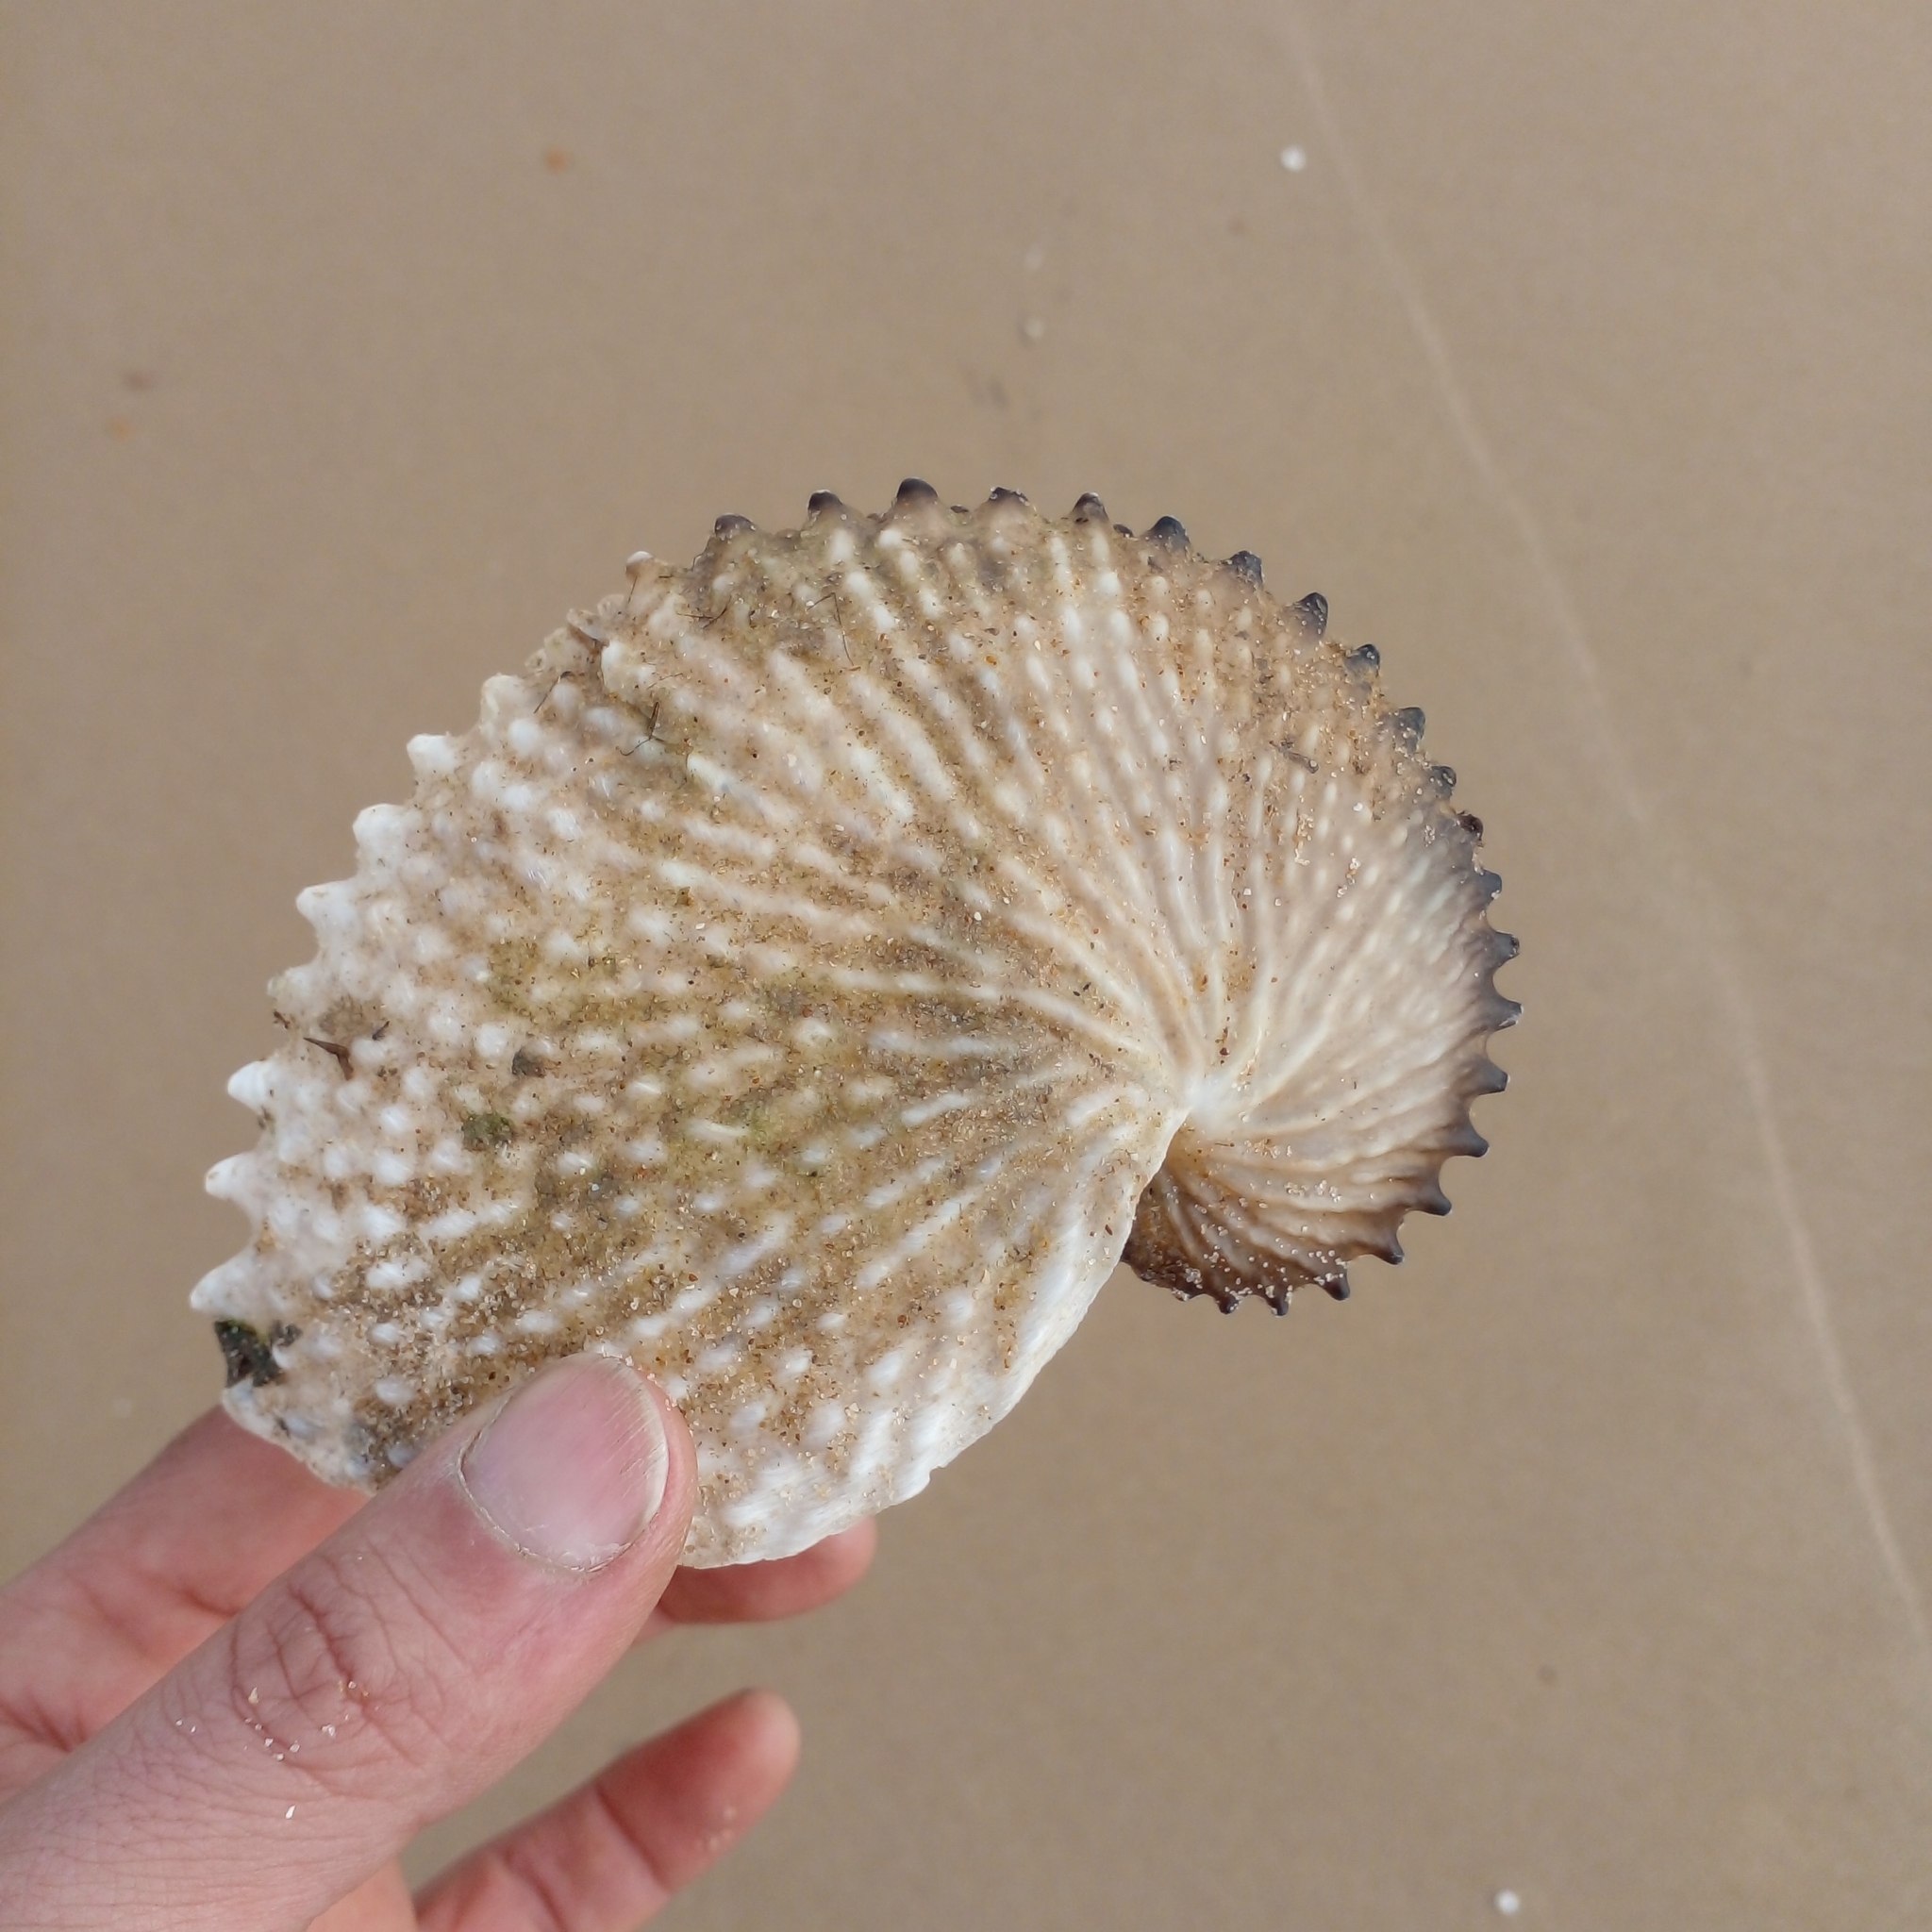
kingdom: Animalia
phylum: Mollusca
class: Cephalopoda
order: Octopoda
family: Argonautidae
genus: Argonauta
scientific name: Argonauta nodosus
